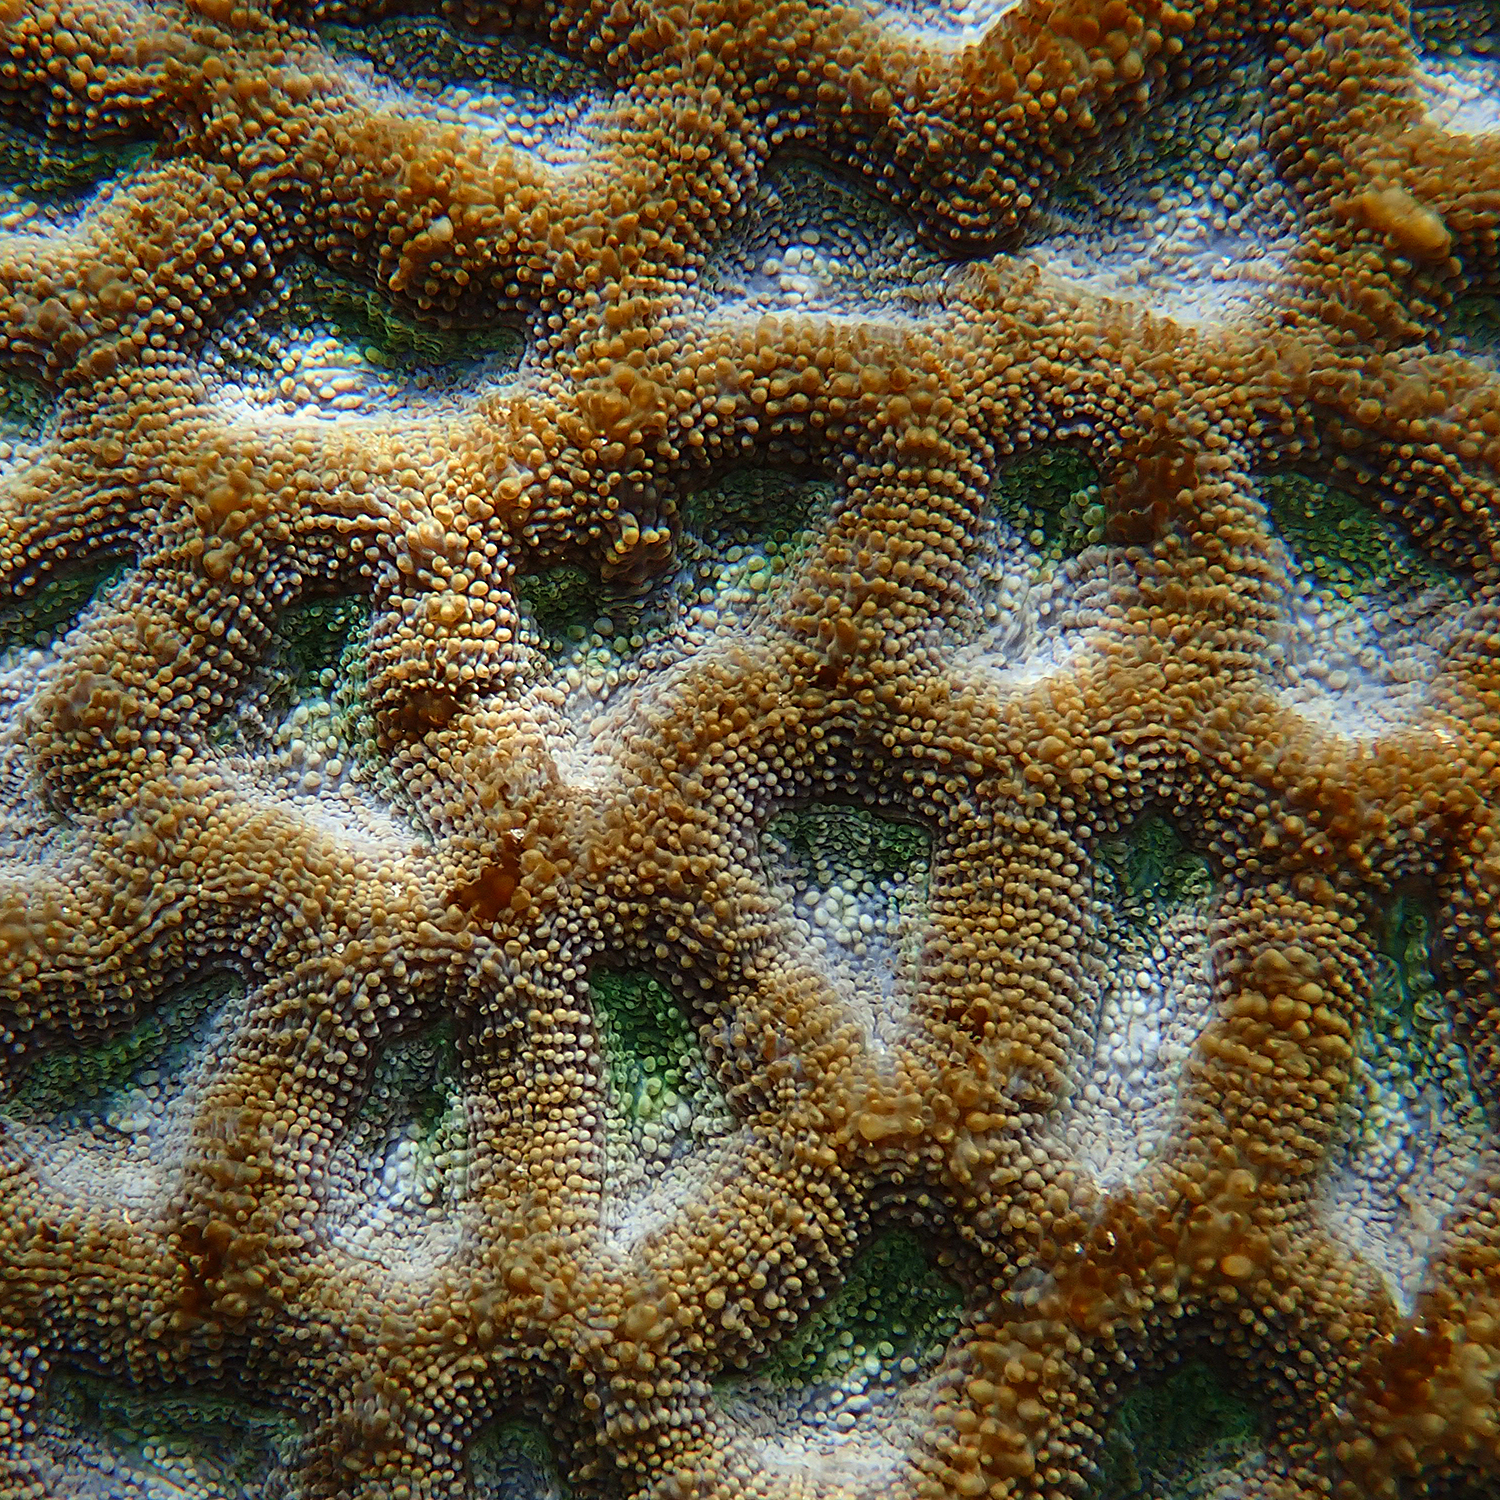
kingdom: Animalia
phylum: Cnidaria
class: Anthozoa
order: Scleractinia
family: Lobophylliidae
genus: Homophyllia
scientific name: Homophyllia bowerbanki
